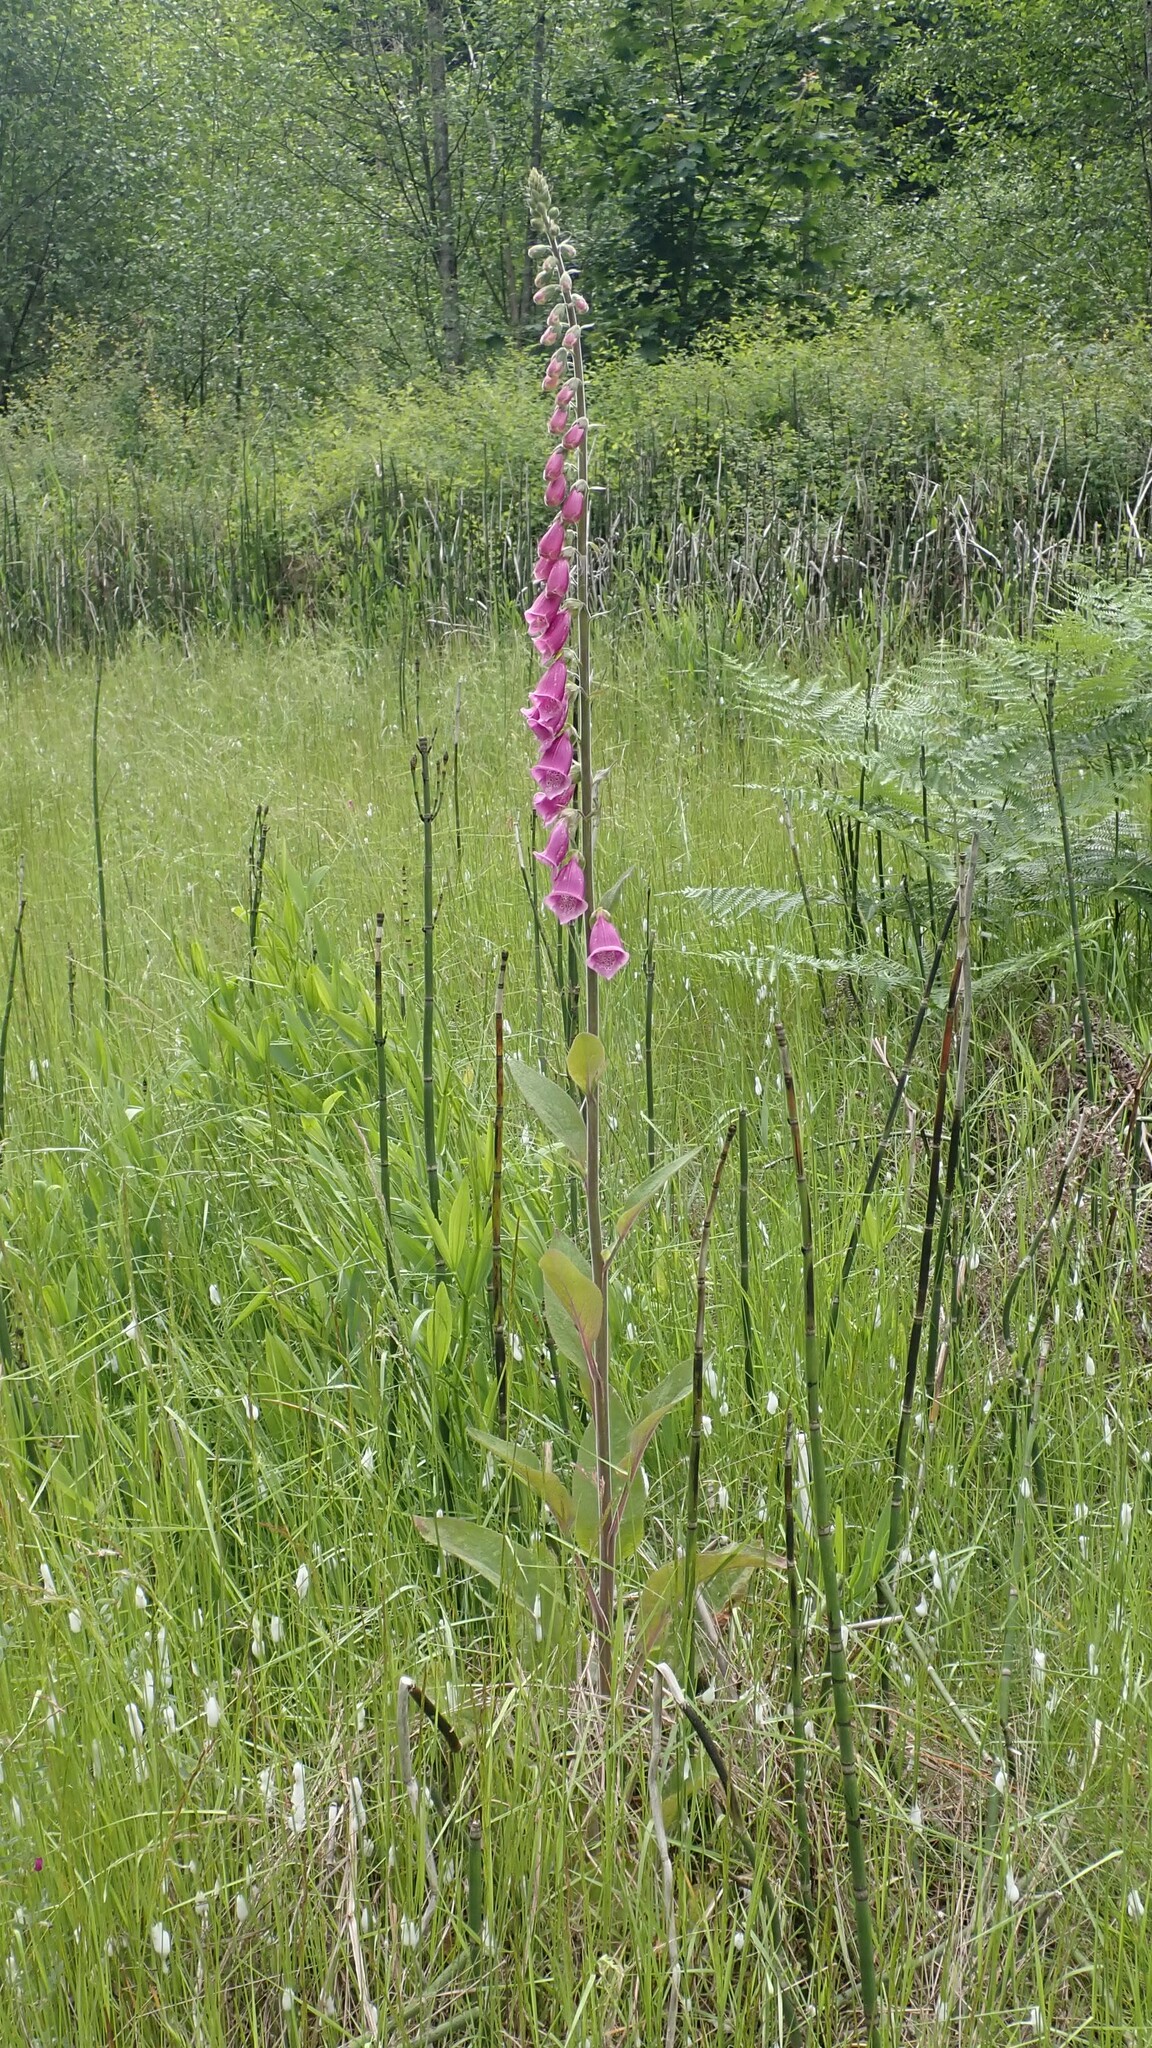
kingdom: Plantae
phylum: Tracheophyta
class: Magnoliopsida
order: Lamiales
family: Plantaginaceae
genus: Digitalis
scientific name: Digitalis purpurea
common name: Foxglove
